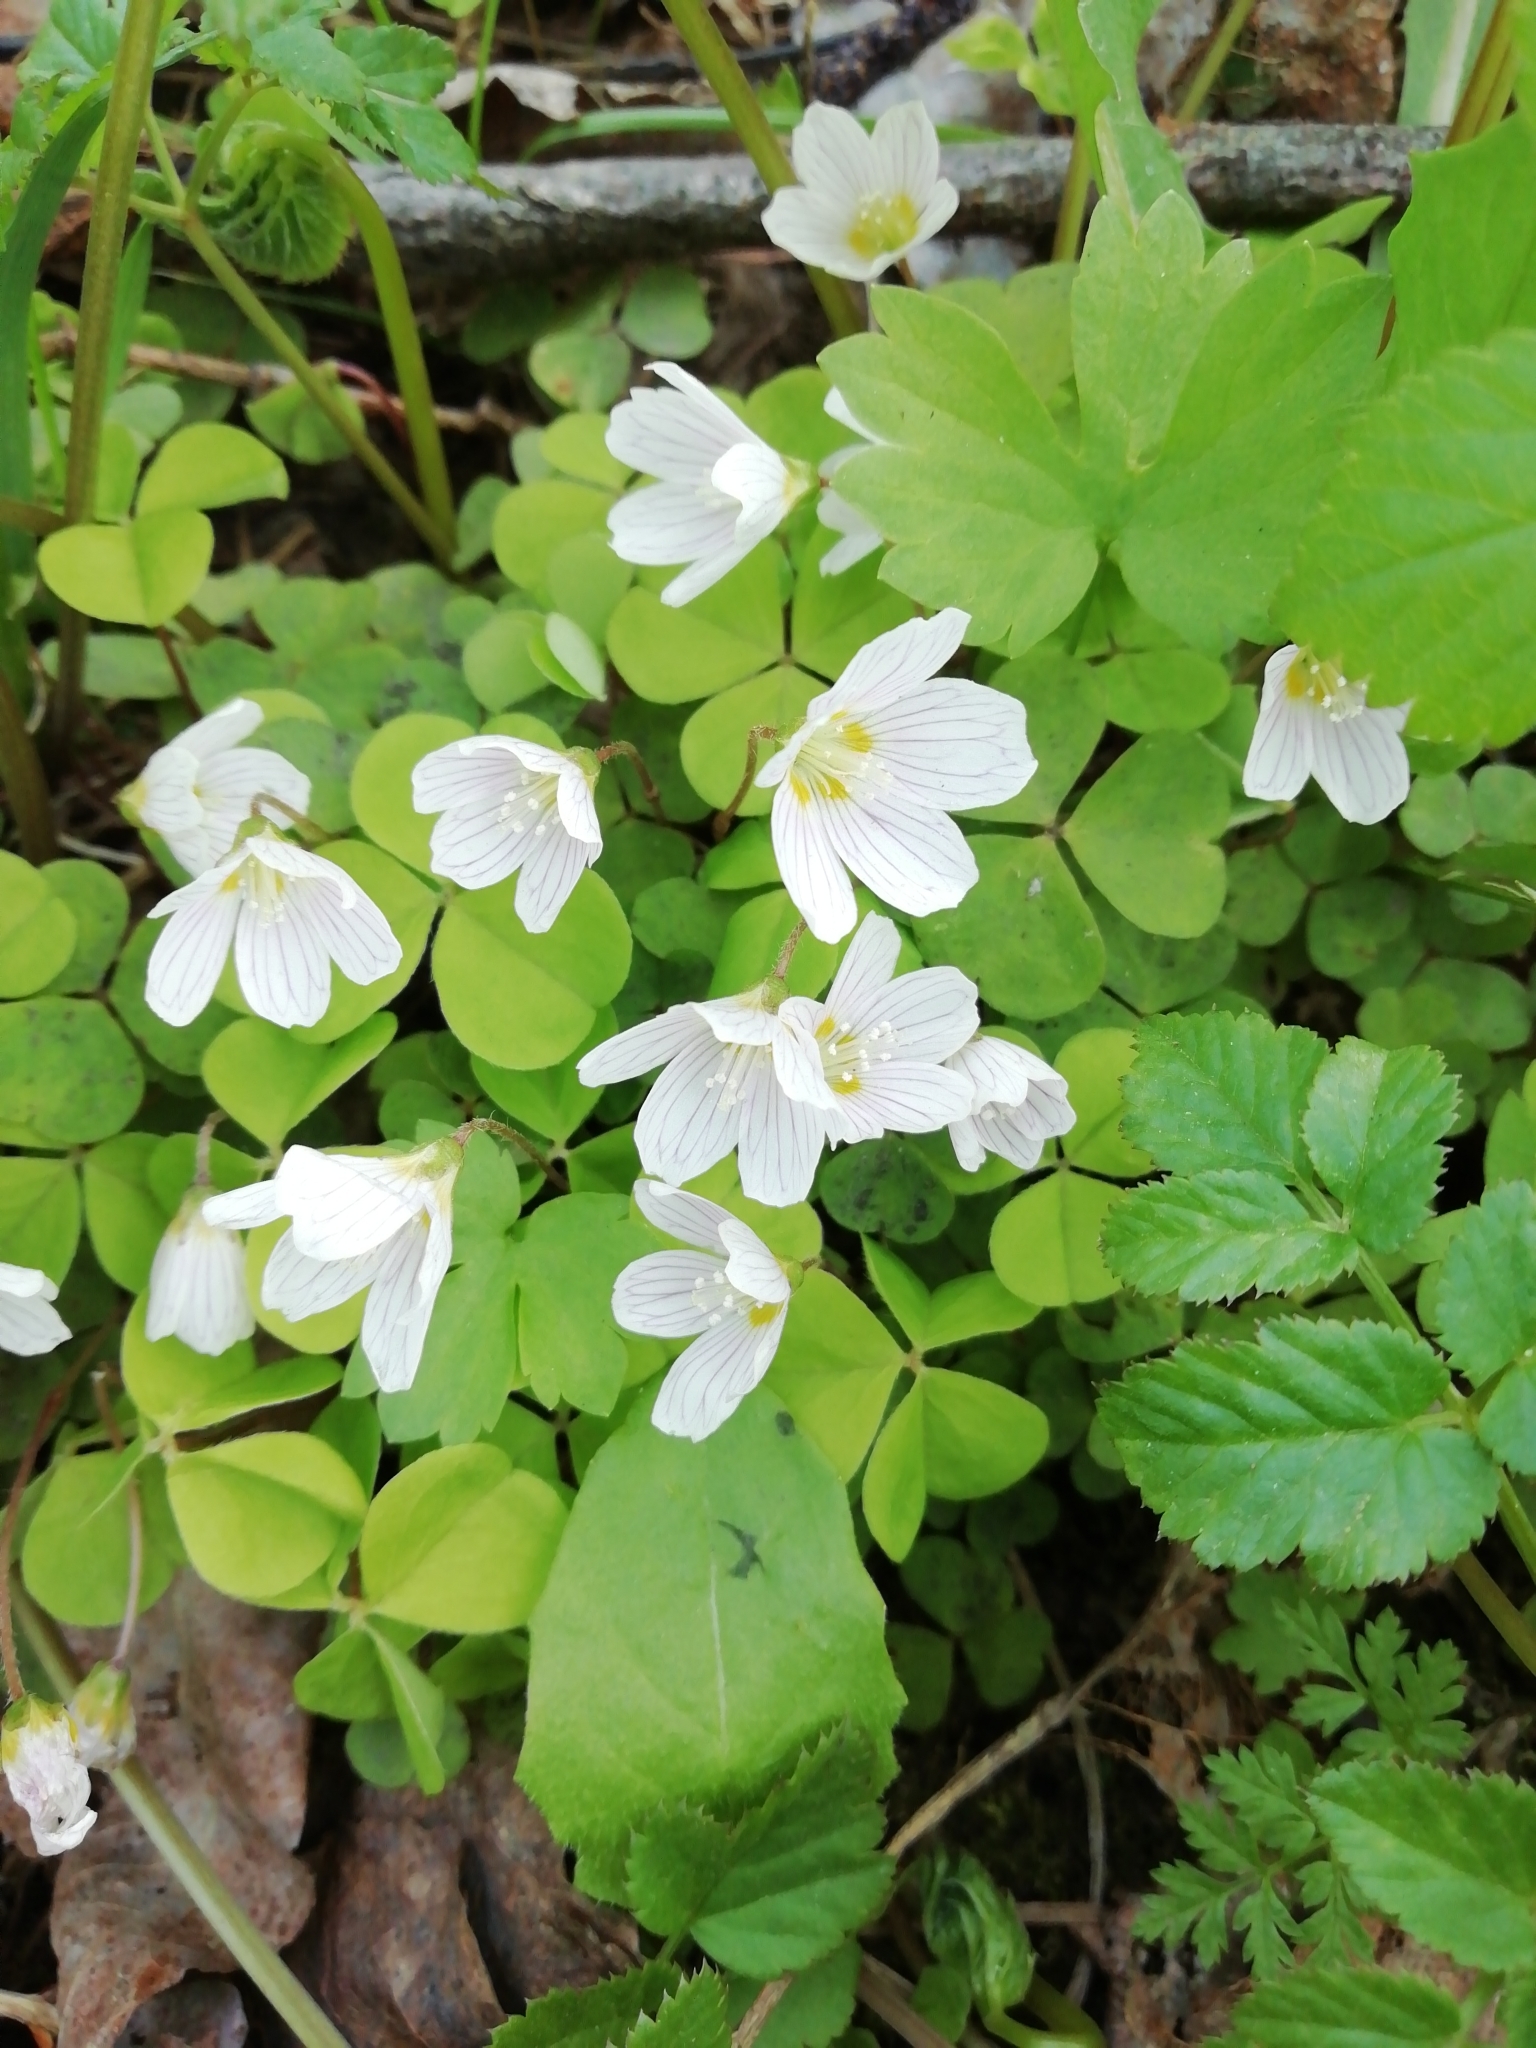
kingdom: Plantae
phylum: Tracheophyta
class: Magnoliopsida
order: Oxalidales
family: Oxalidaceae
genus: Oxalis
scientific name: Oxalis acetosella
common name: Wood-sorrel
